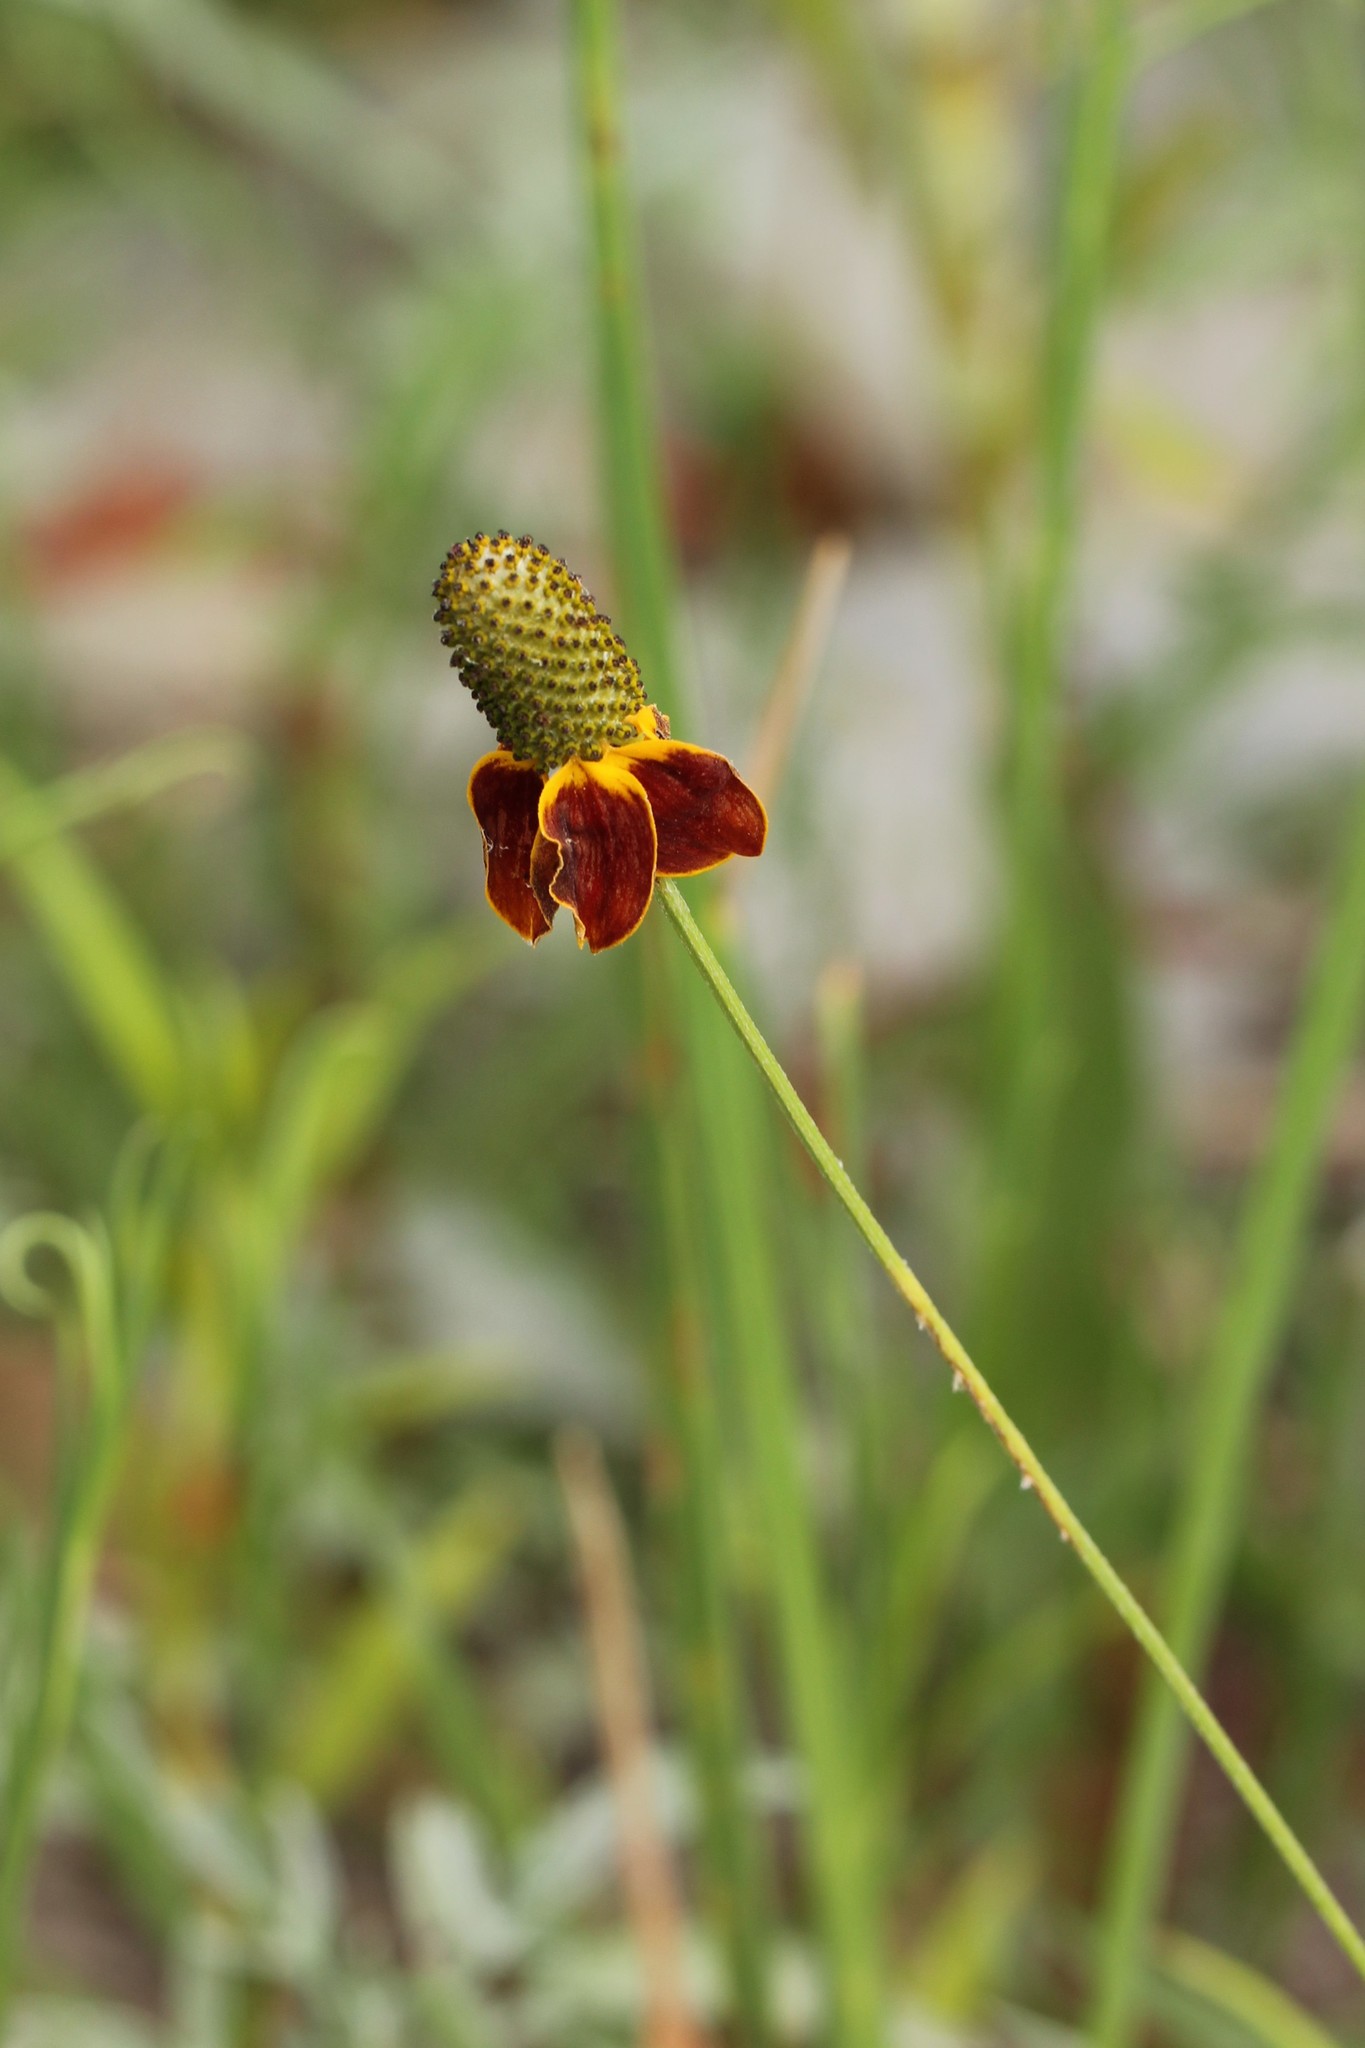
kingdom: Plantae
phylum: Tracheophyta
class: Magnoliopsida
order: Asterales
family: Asteraceae
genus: Ratibida
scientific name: Ratibida columnifera
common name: Prairie coneflower
